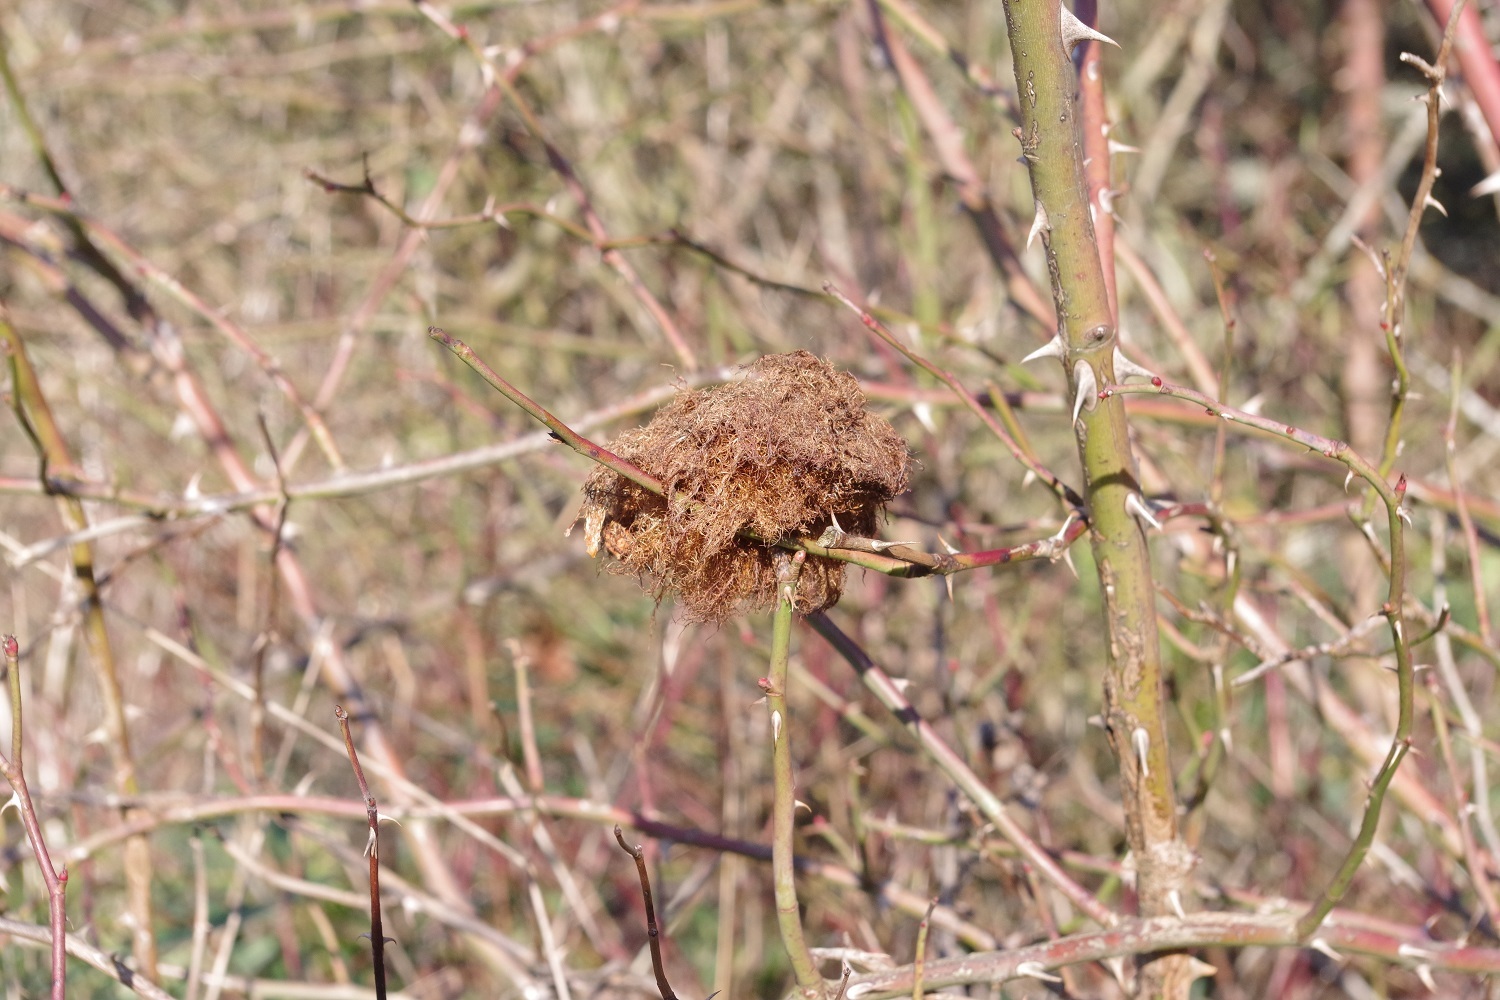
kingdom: Animalia
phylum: Arthropoda
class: Insecta
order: Hymenoptera
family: Cynipidae
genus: Diplolepis
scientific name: Diplolepis rosae
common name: Bedeguar gall
